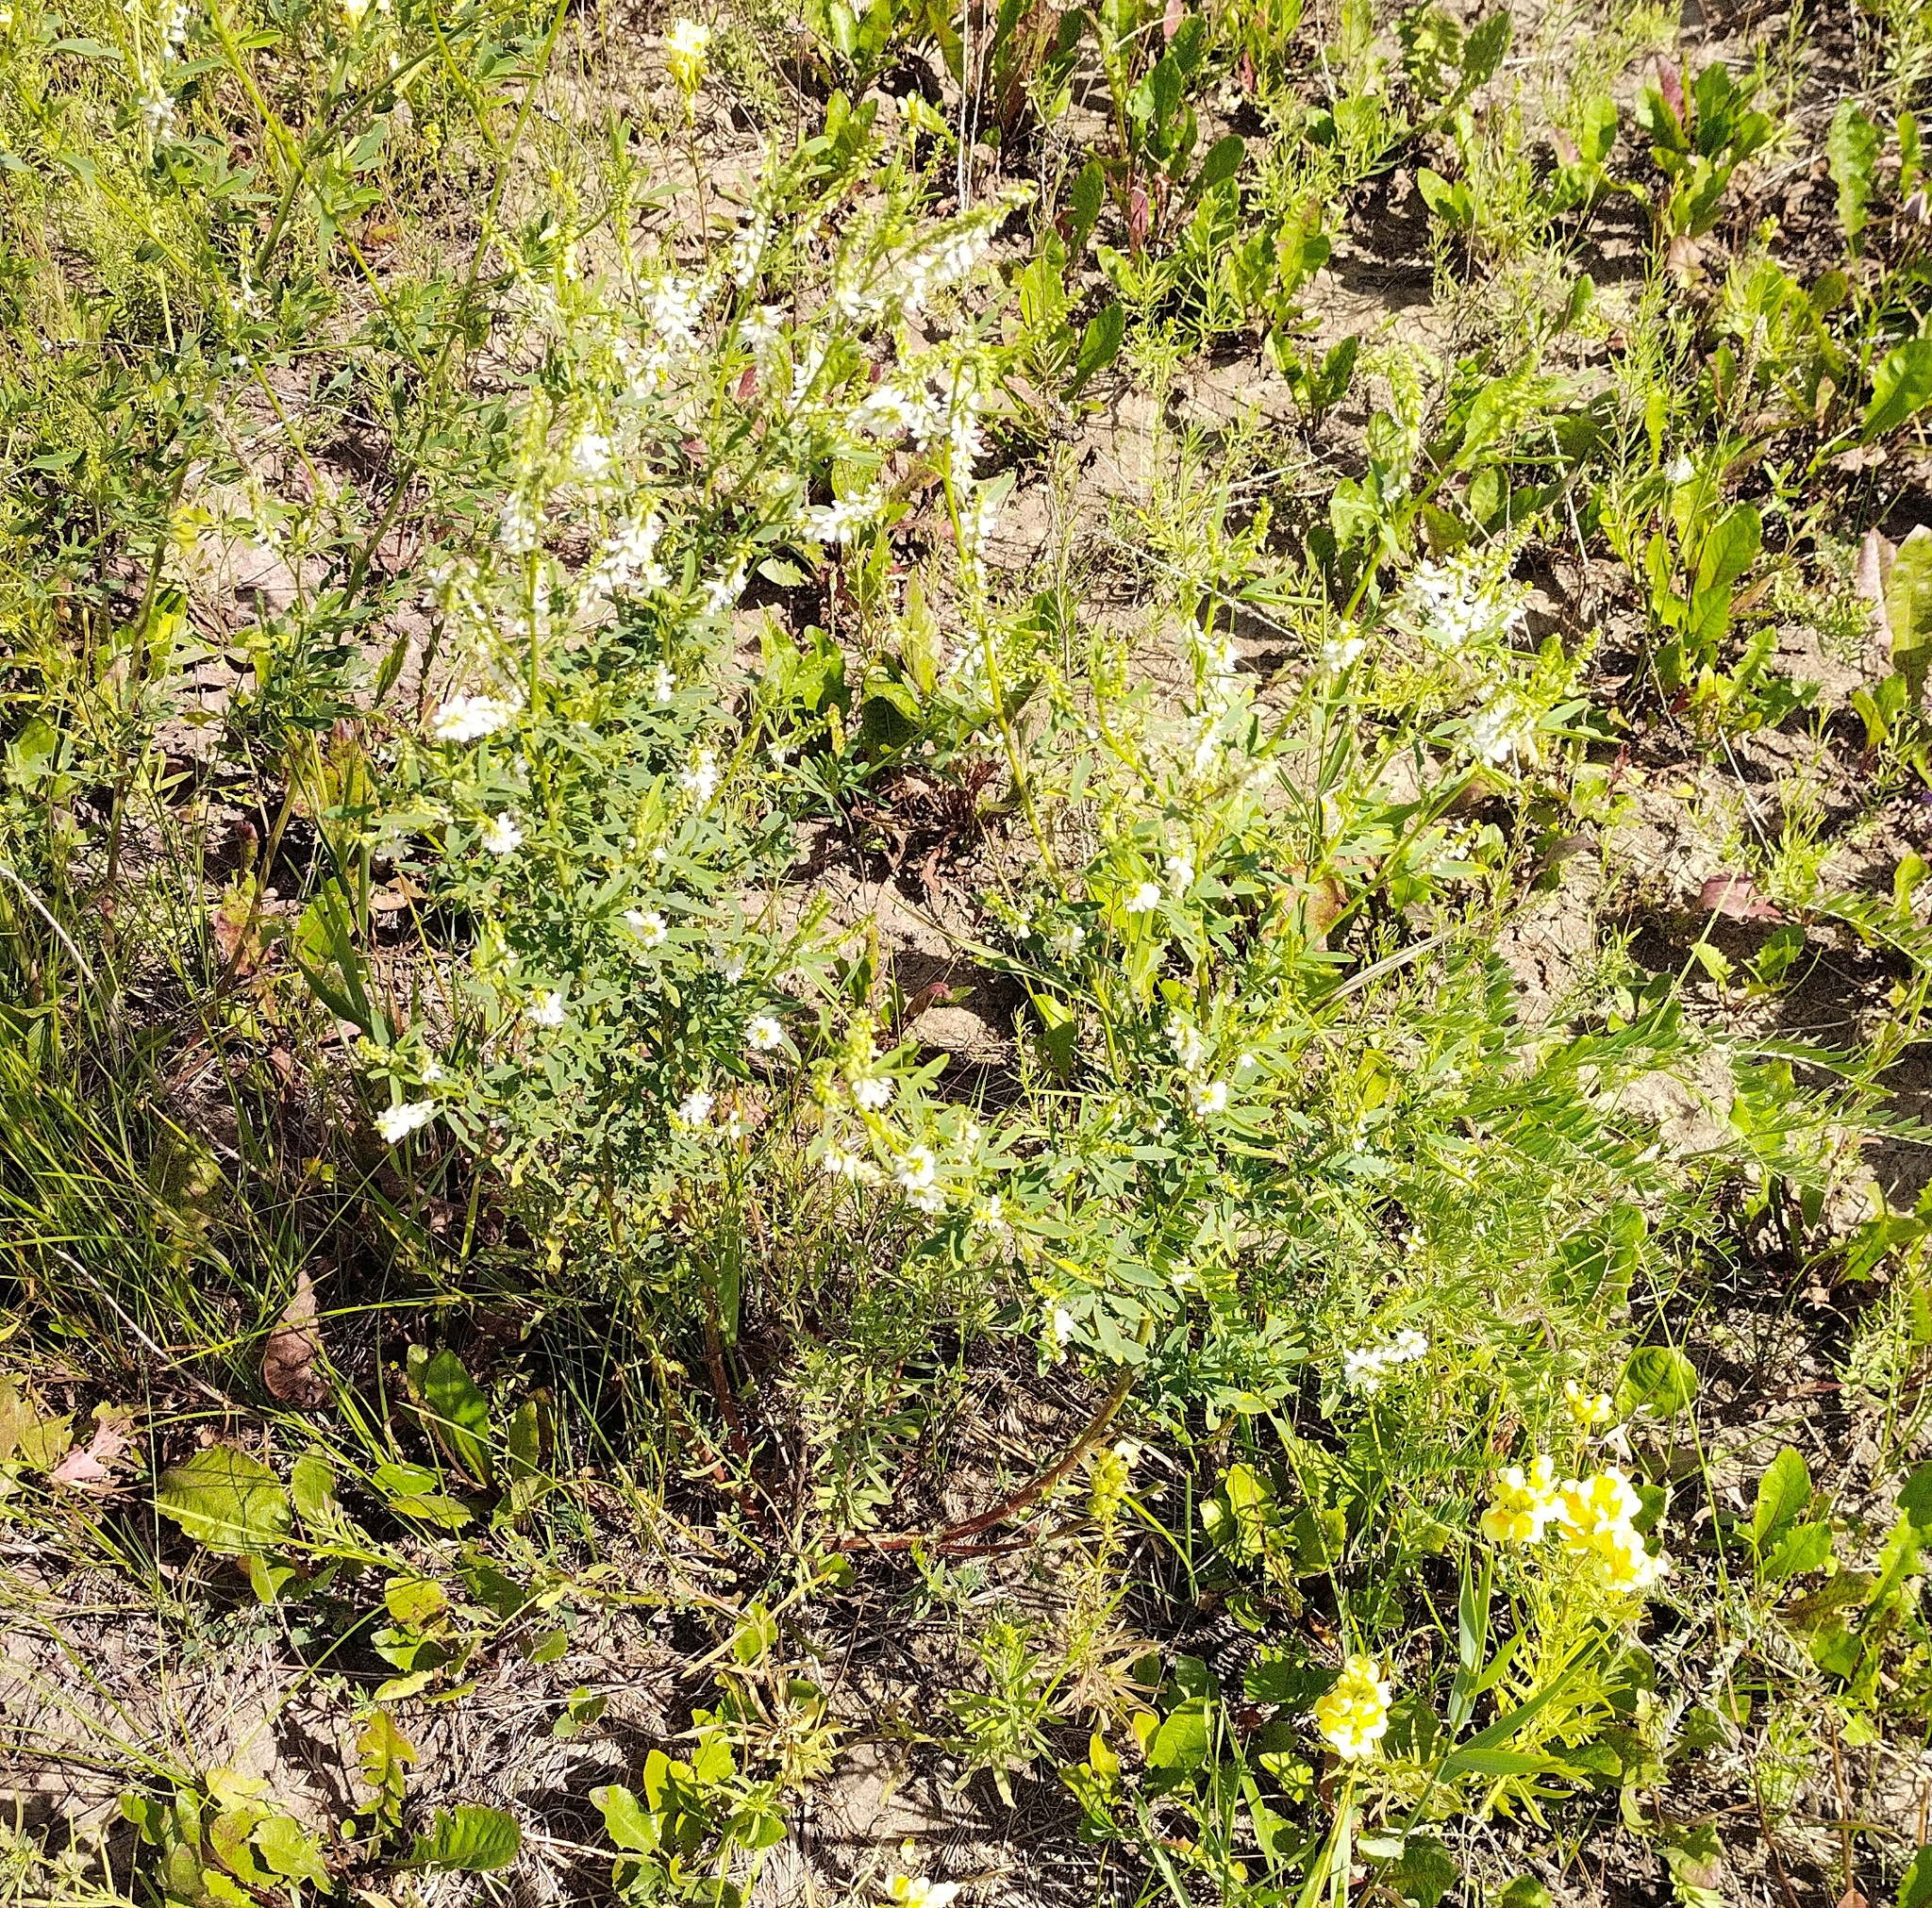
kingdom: Plantae
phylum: Tracheophyta
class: Magnoliopsida
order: Fabales
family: Fabaceae
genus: Melilotus
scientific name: Melilotus albus
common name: White melilot
